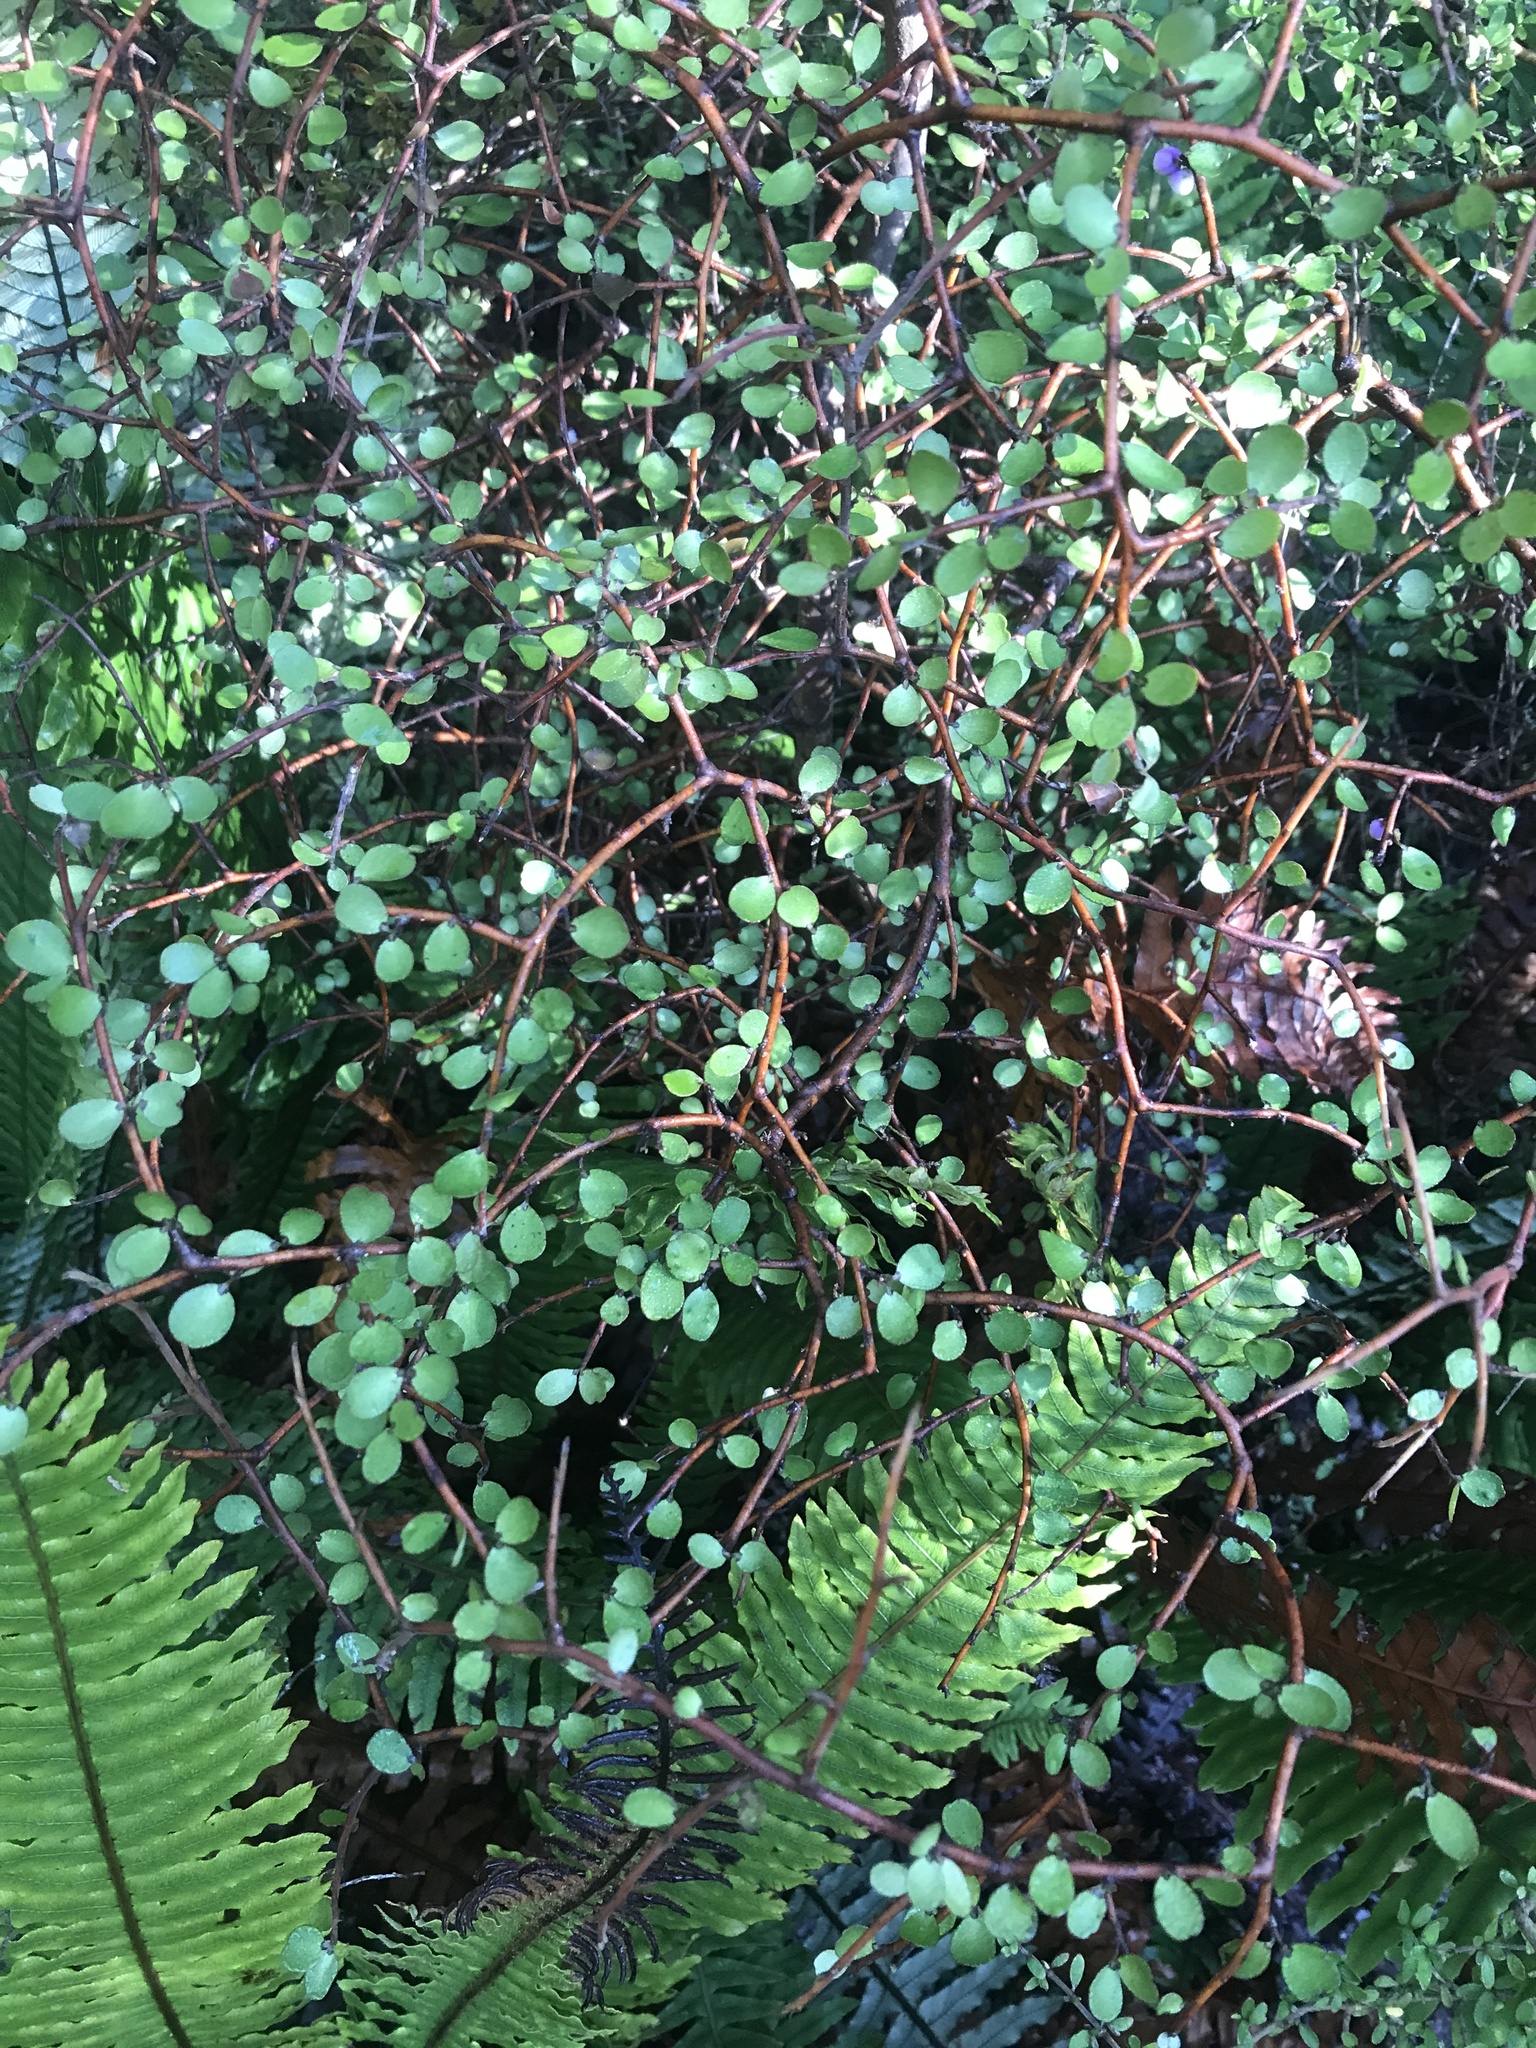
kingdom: Plantae
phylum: Tracheophyta
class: Magnoliopsida
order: Ericales
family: Primulaceae
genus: Myrsine
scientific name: Myrsine divaricata
